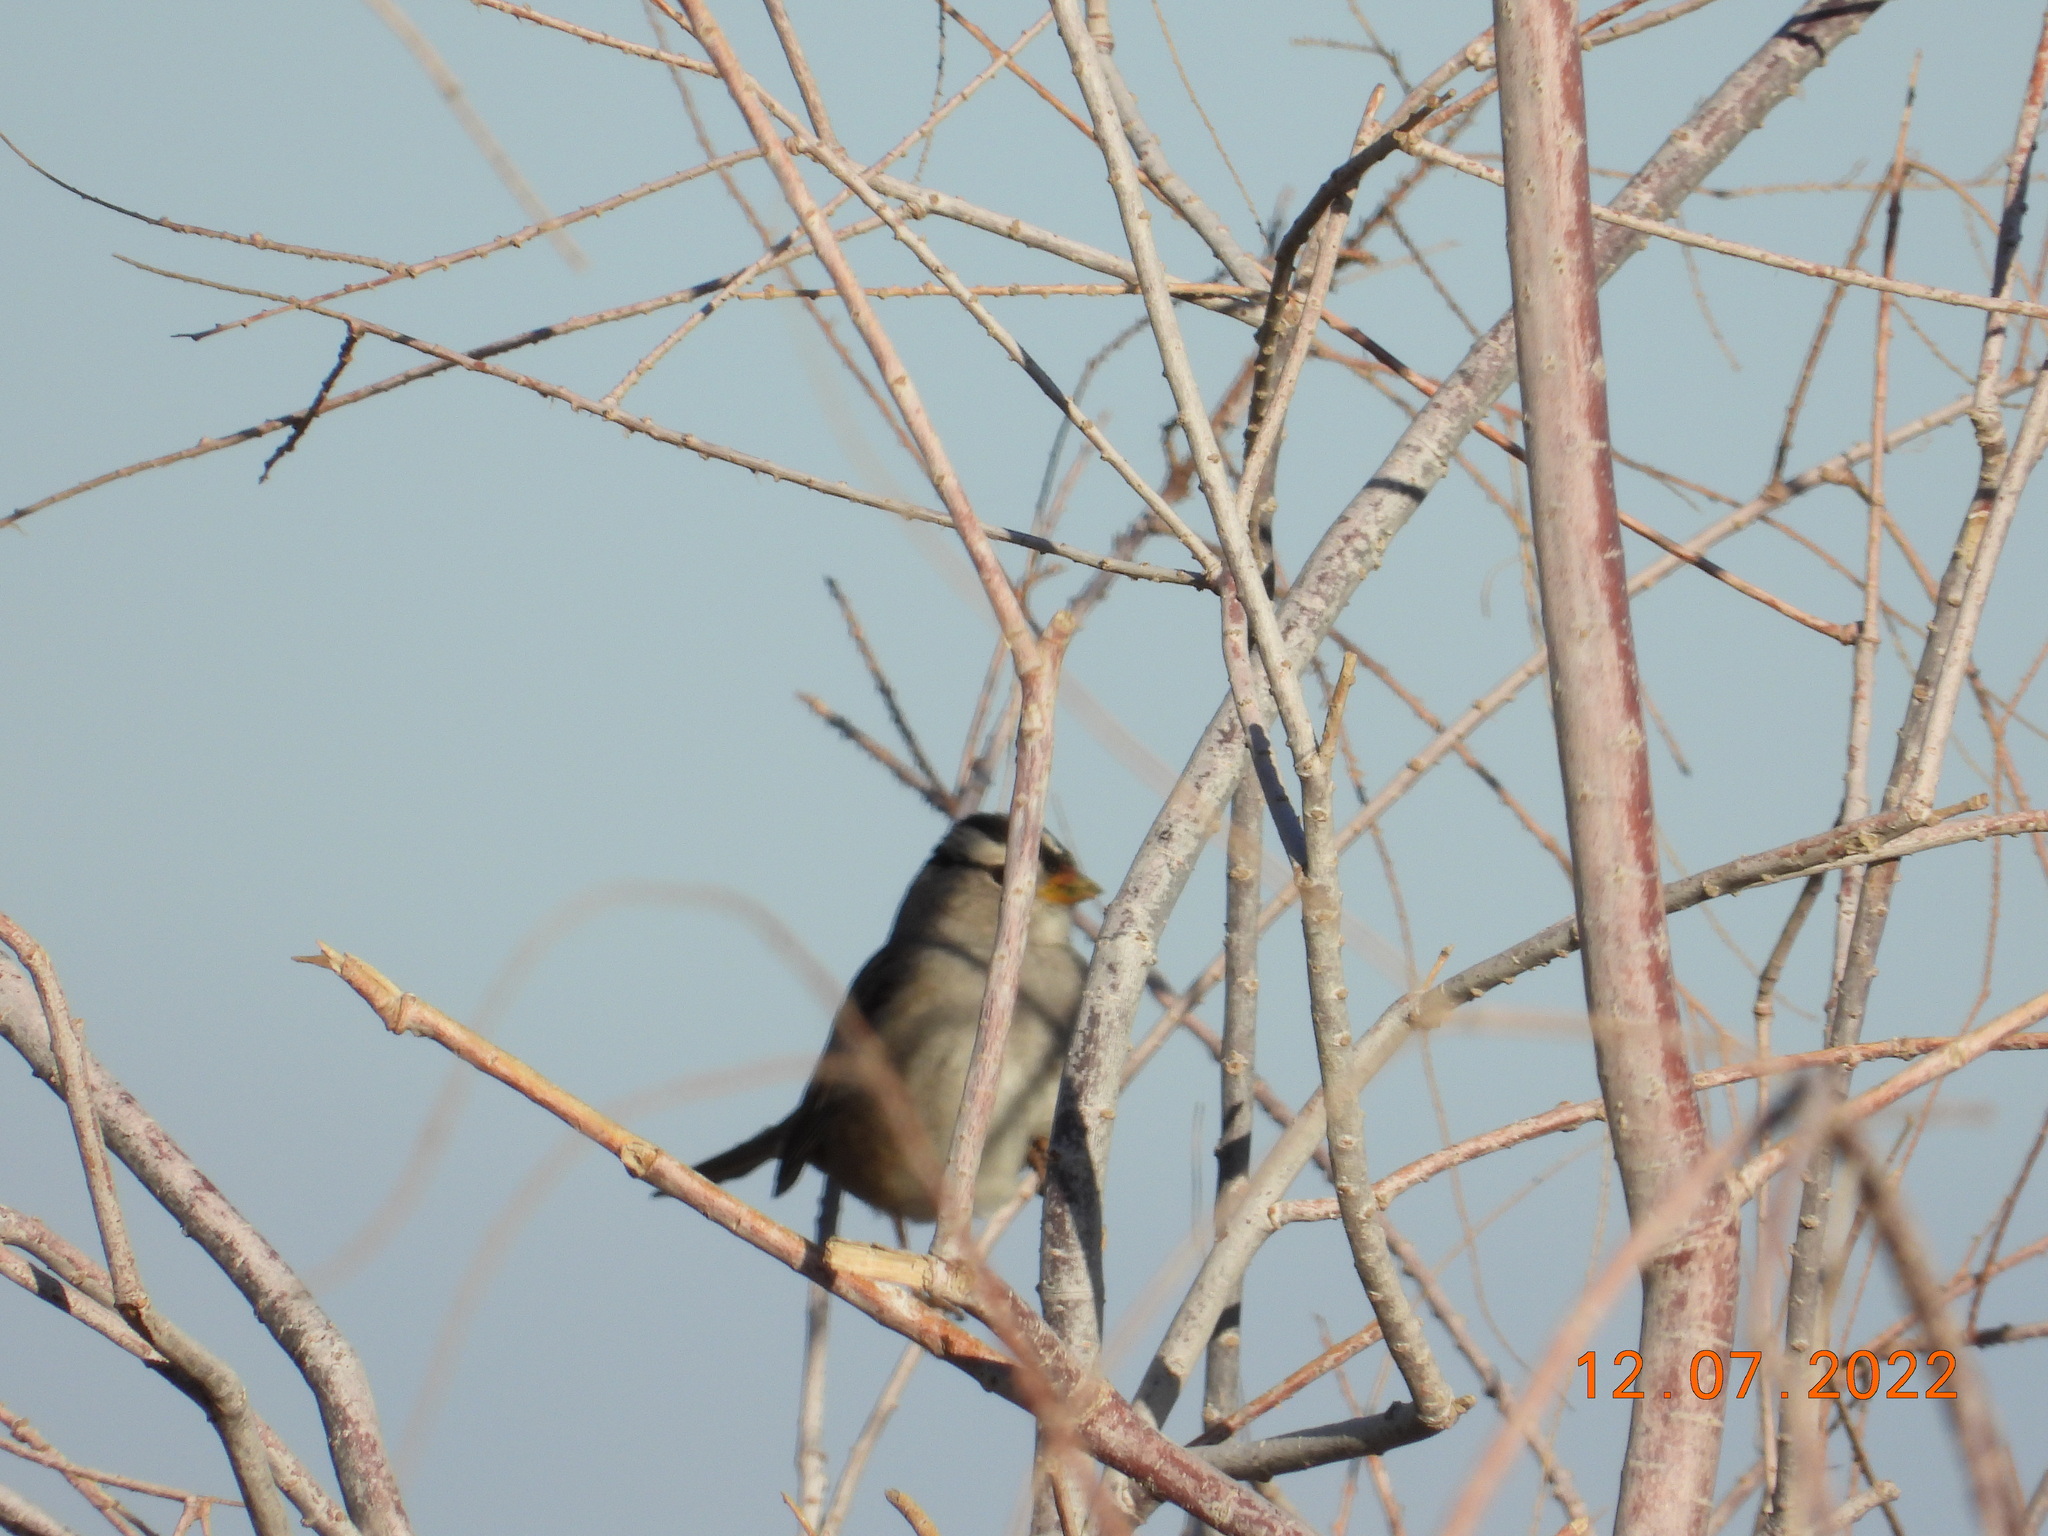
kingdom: Animalia
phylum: Chordata
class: Aves
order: Passeriformes
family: Passerellidae
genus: Zonotrichia
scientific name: Zonotrichia leucophrys
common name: White-crowned sparrow
